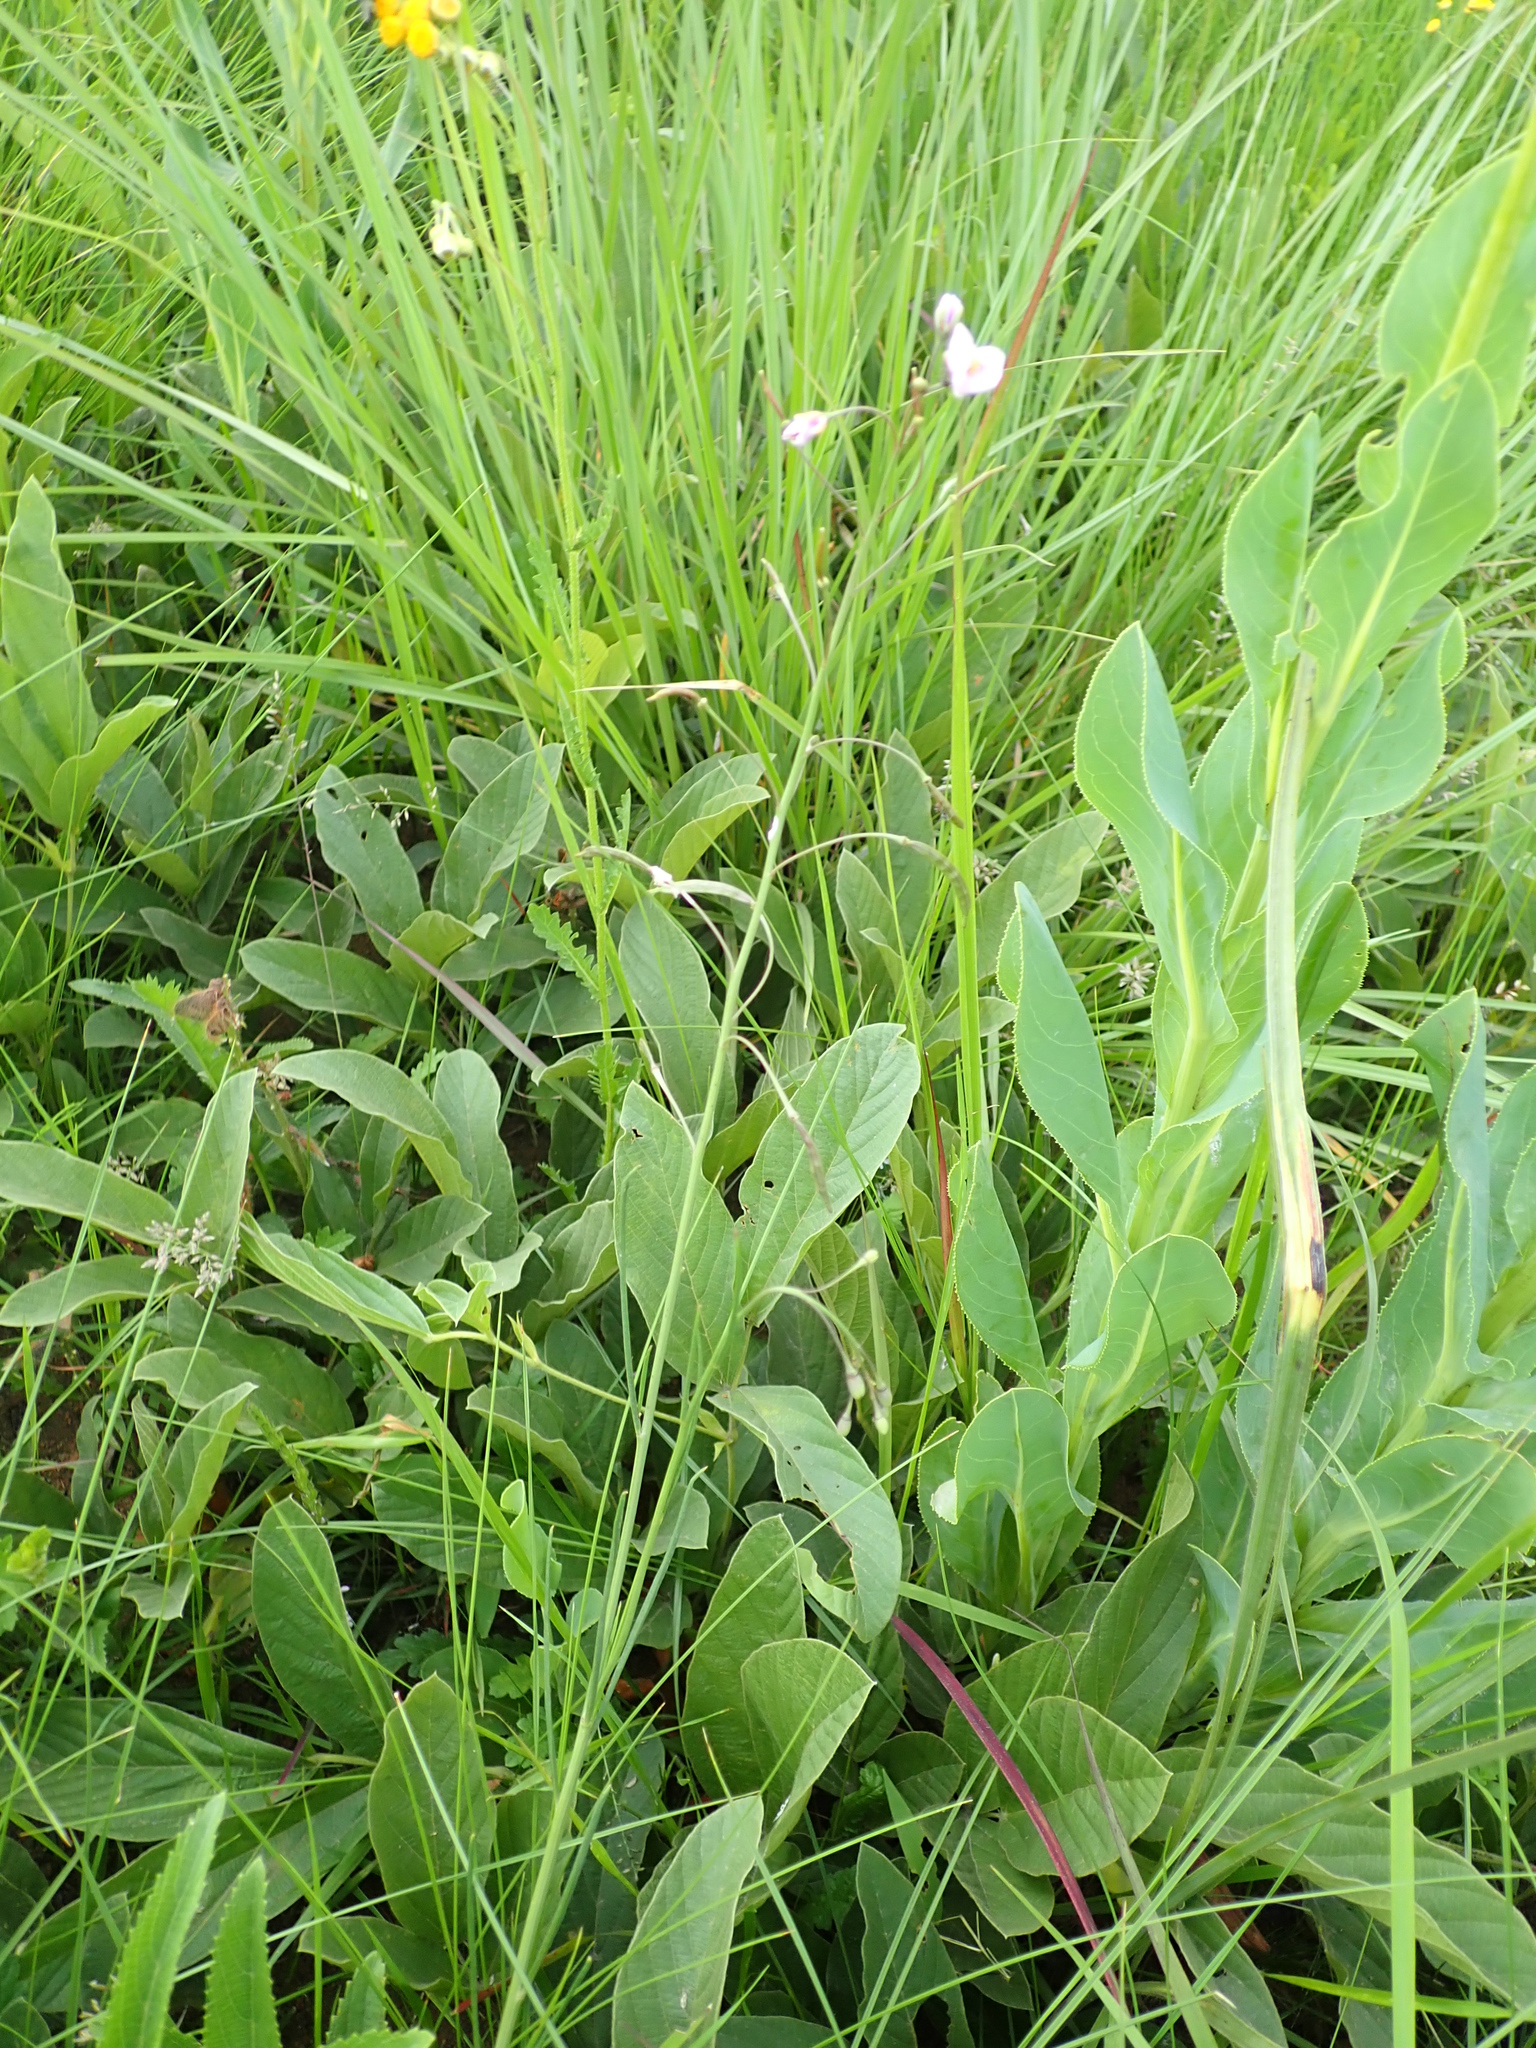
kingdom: Plantae
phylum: Tracheophyta
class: Magnoliopsida
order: Brassicales
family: Brassicaceae
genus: Heliophila
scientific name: Heliophila rigidiuscula
